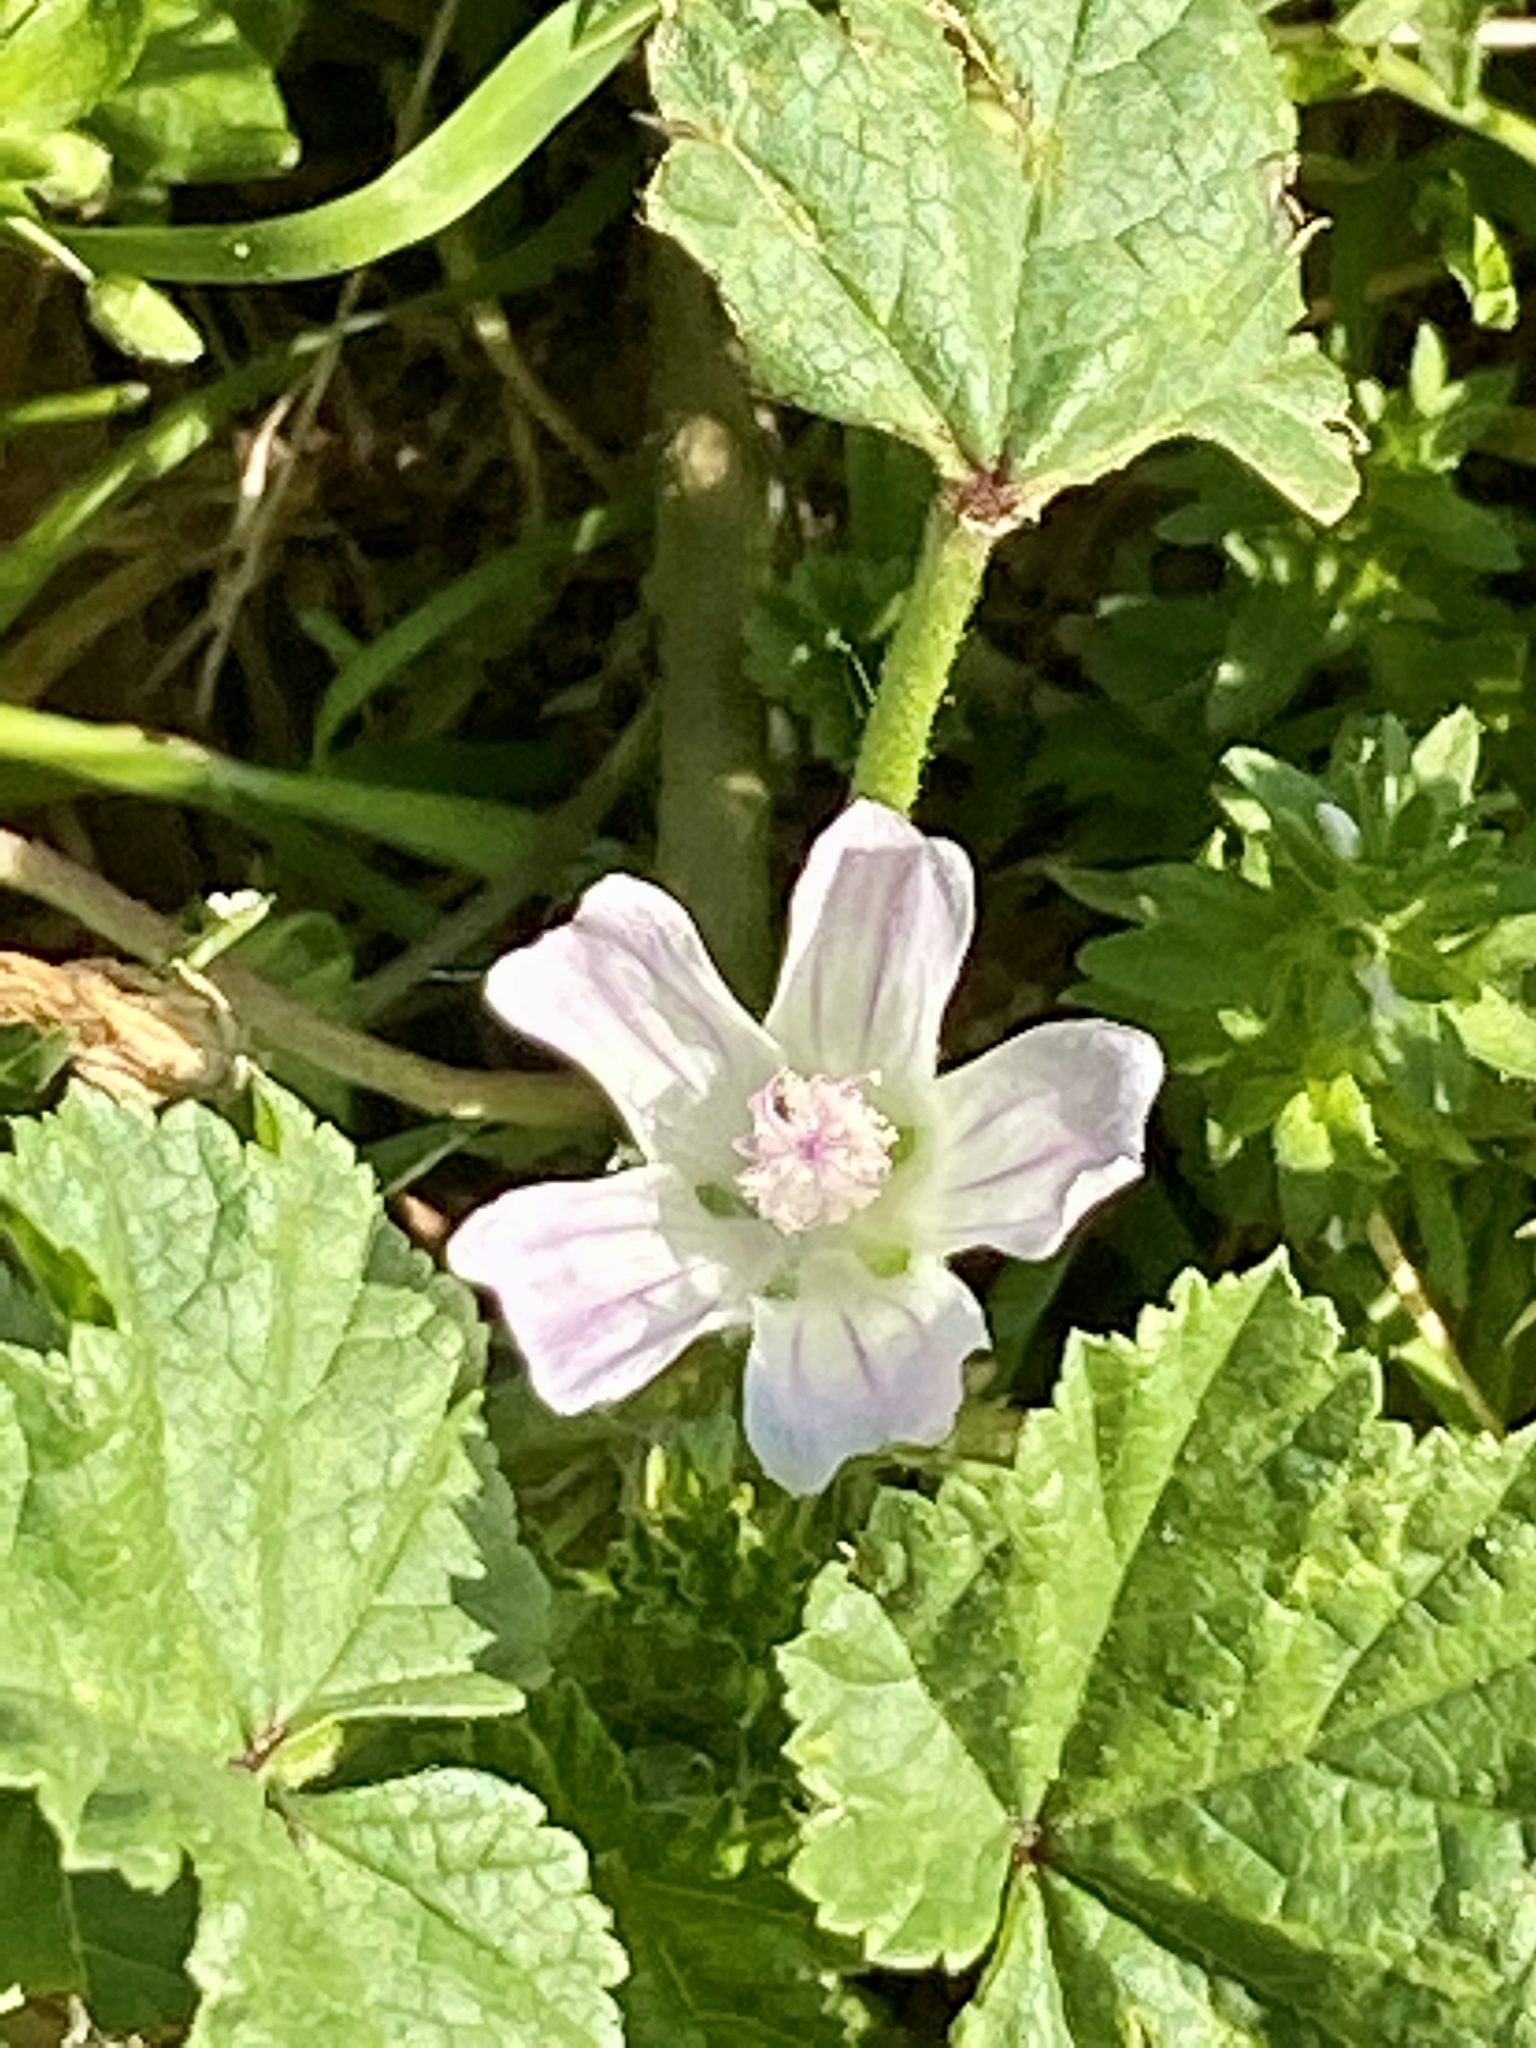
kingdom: Plantae
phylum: Tracheophyta
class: Magnoliopsida
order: Malvales
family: Malvaceae
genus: Malva
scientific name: Malva neglecta
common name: Common mallow
